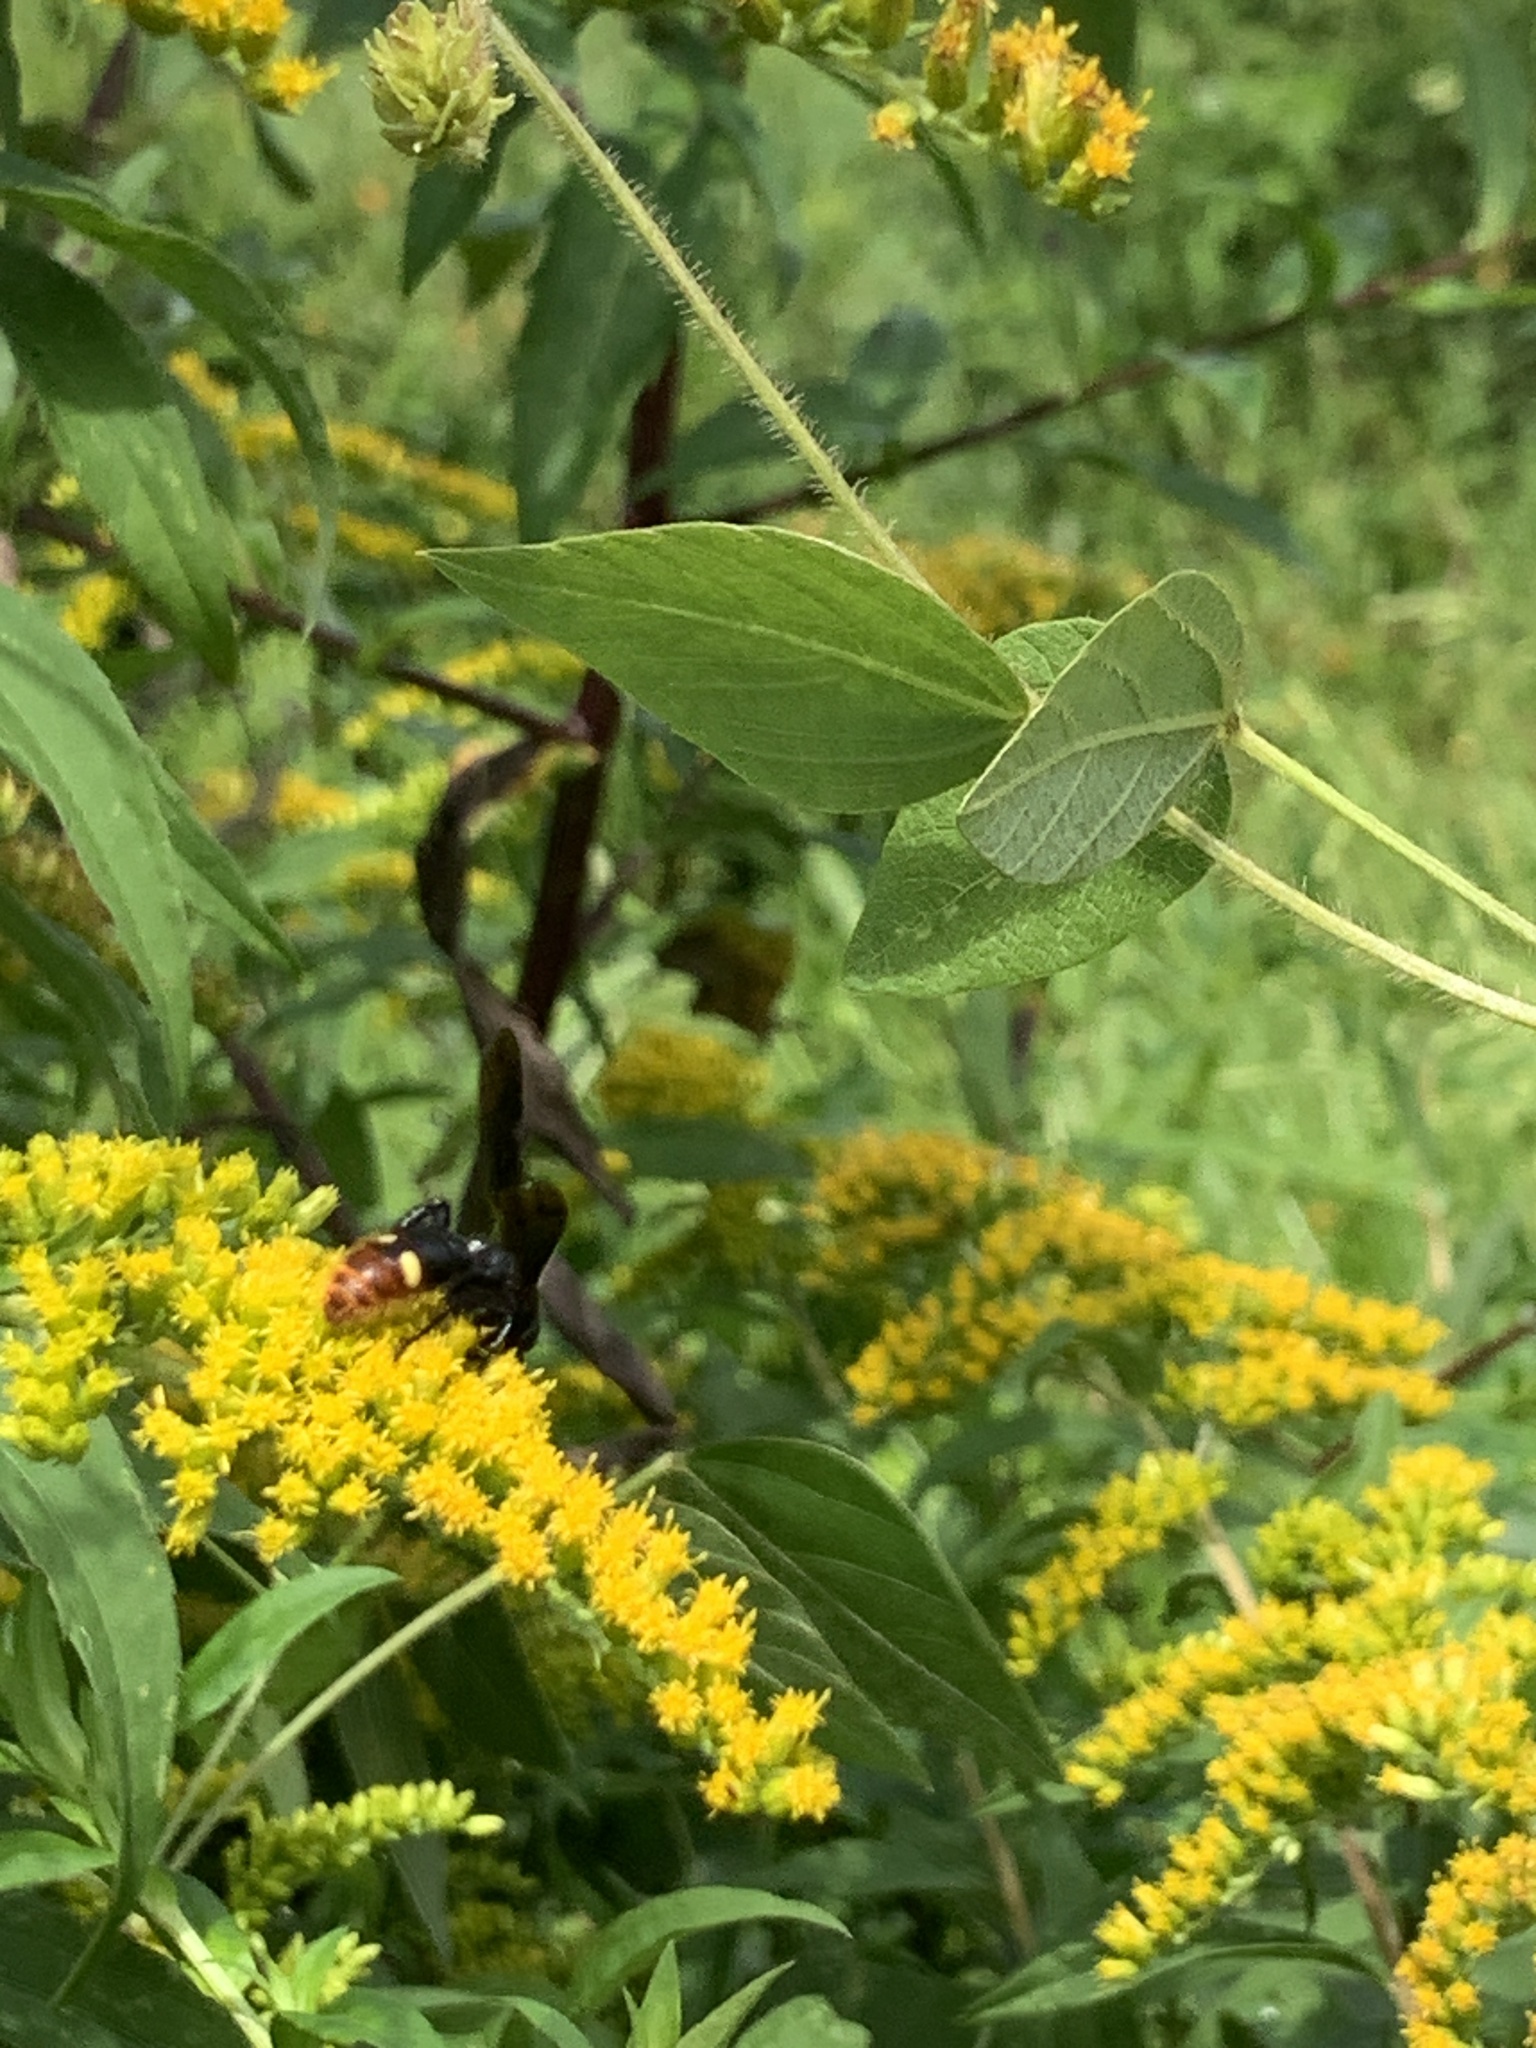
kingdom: Animalia
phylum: Arthropoda
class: Insecta
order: Hymenoptera
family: Scoliidae
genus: Scolia
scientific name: Scolia dubia
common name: Blue-winged scoliid wasp
